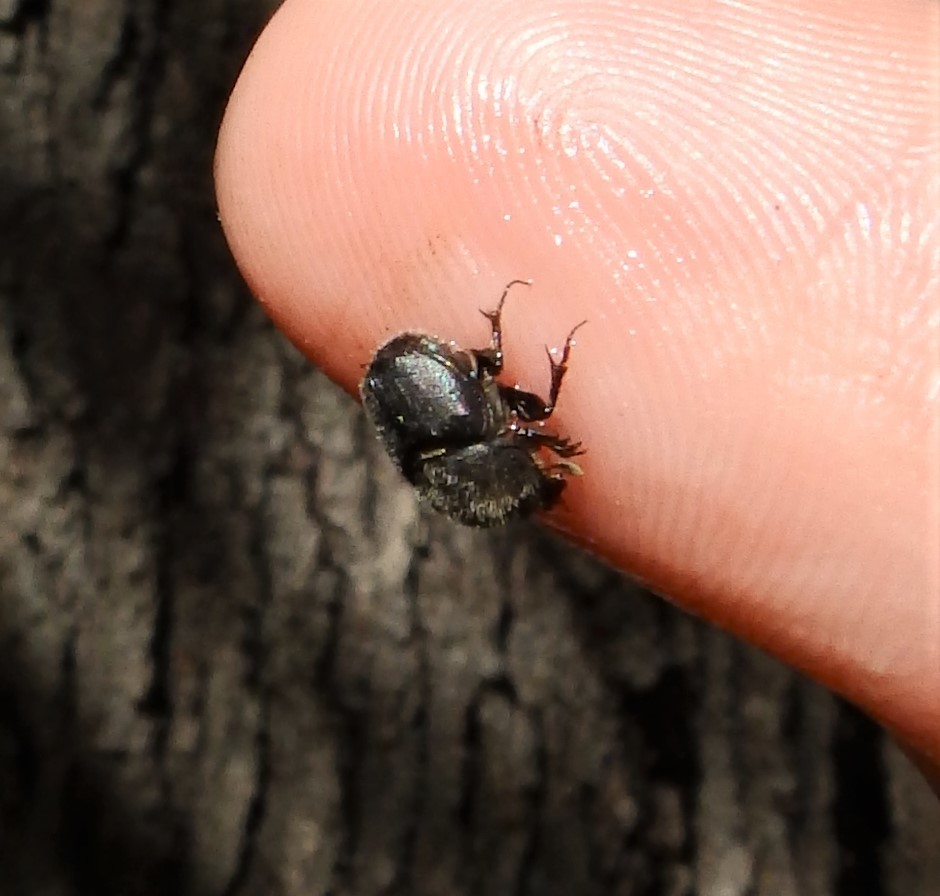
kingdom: Animalia
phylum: Arthropoda
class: Insecta
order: Coleoptera
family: Scarabaeidae
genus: Onthophagus
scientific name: Onthophagus hecate
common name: Scooped scarab
